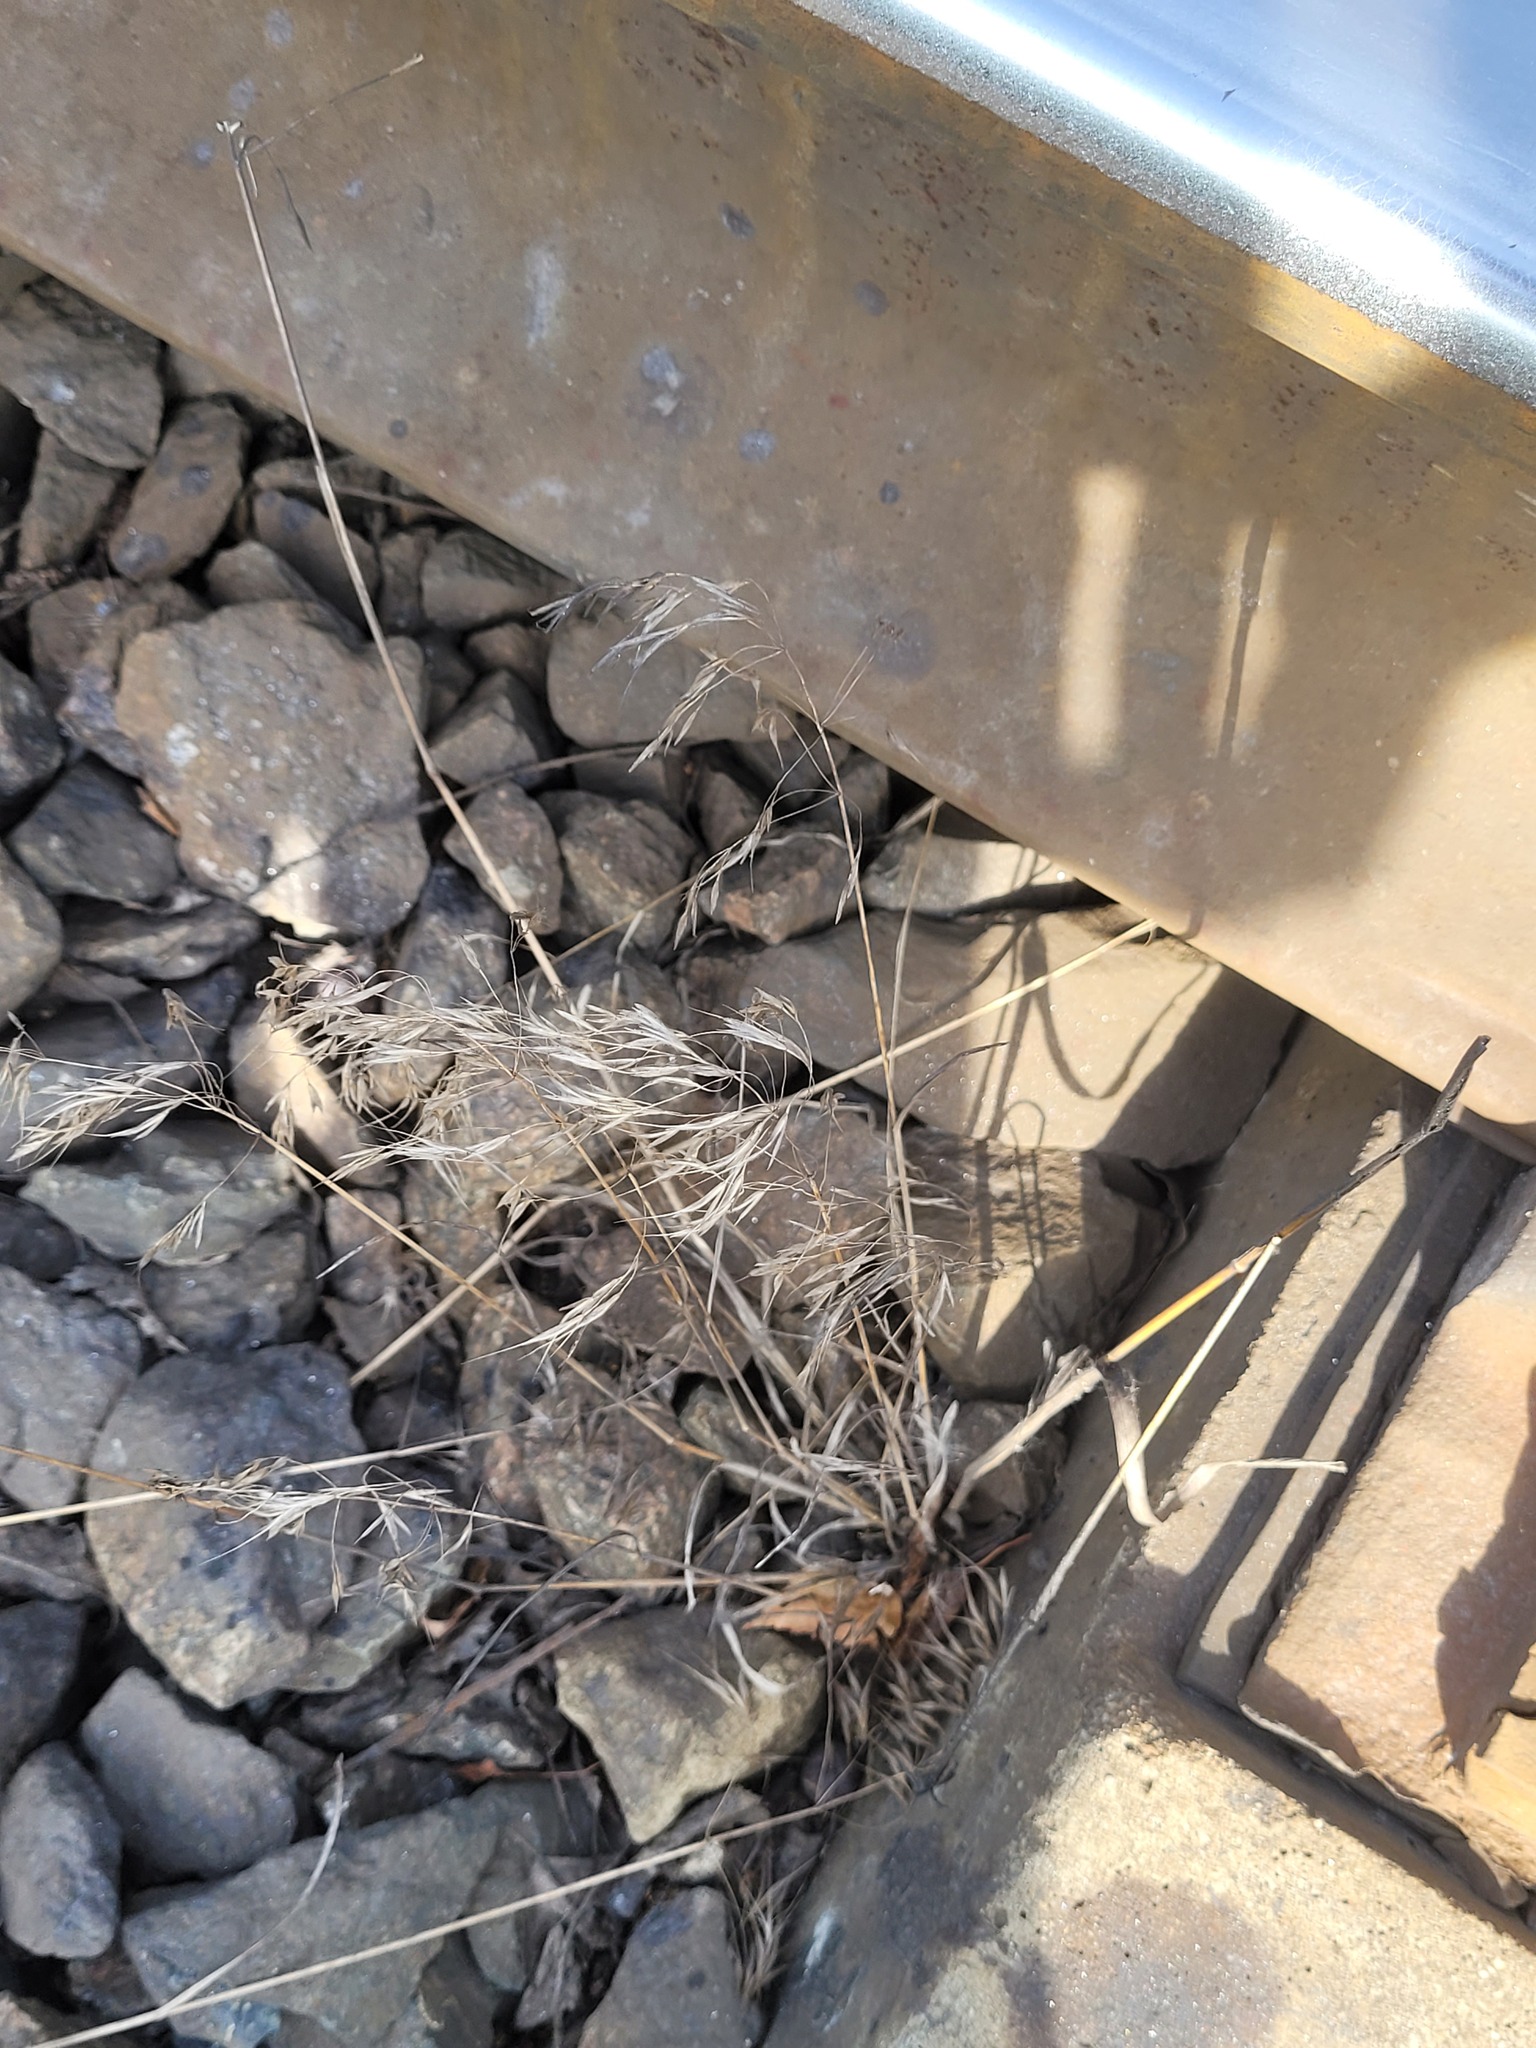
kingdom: Plantae
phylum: Tracheophyta
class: Liliopsida
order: Poales
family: Poaceae
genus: Bromus
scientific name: Bromus tectorum
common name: Cheatgrass
